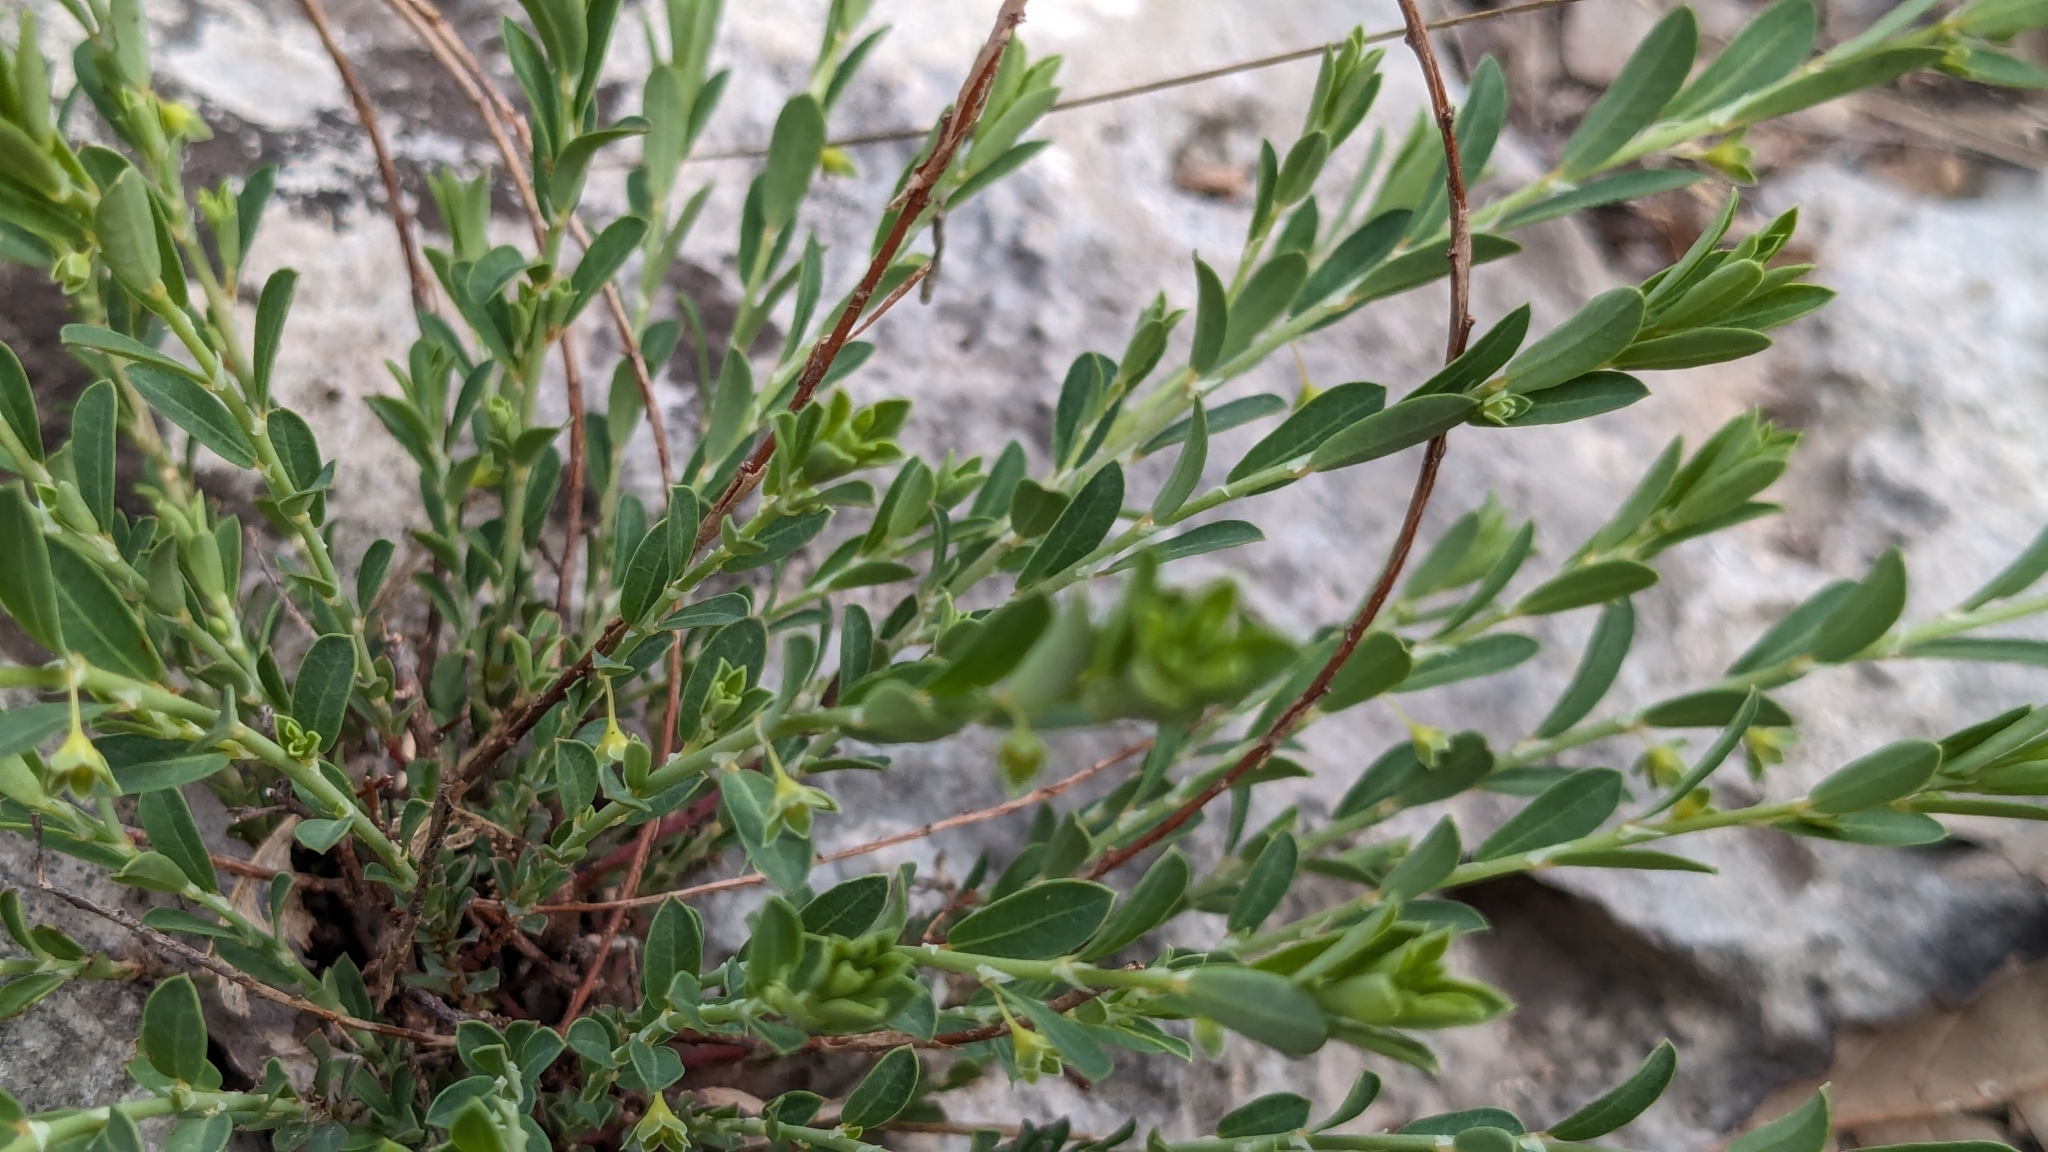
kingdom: Plantae
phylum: Tracheophyta
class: Magnoliopsida
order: Malpighiales
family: Phyllanthaceae
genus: Phyllanthus
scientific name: Phyllanthus polygonoides
